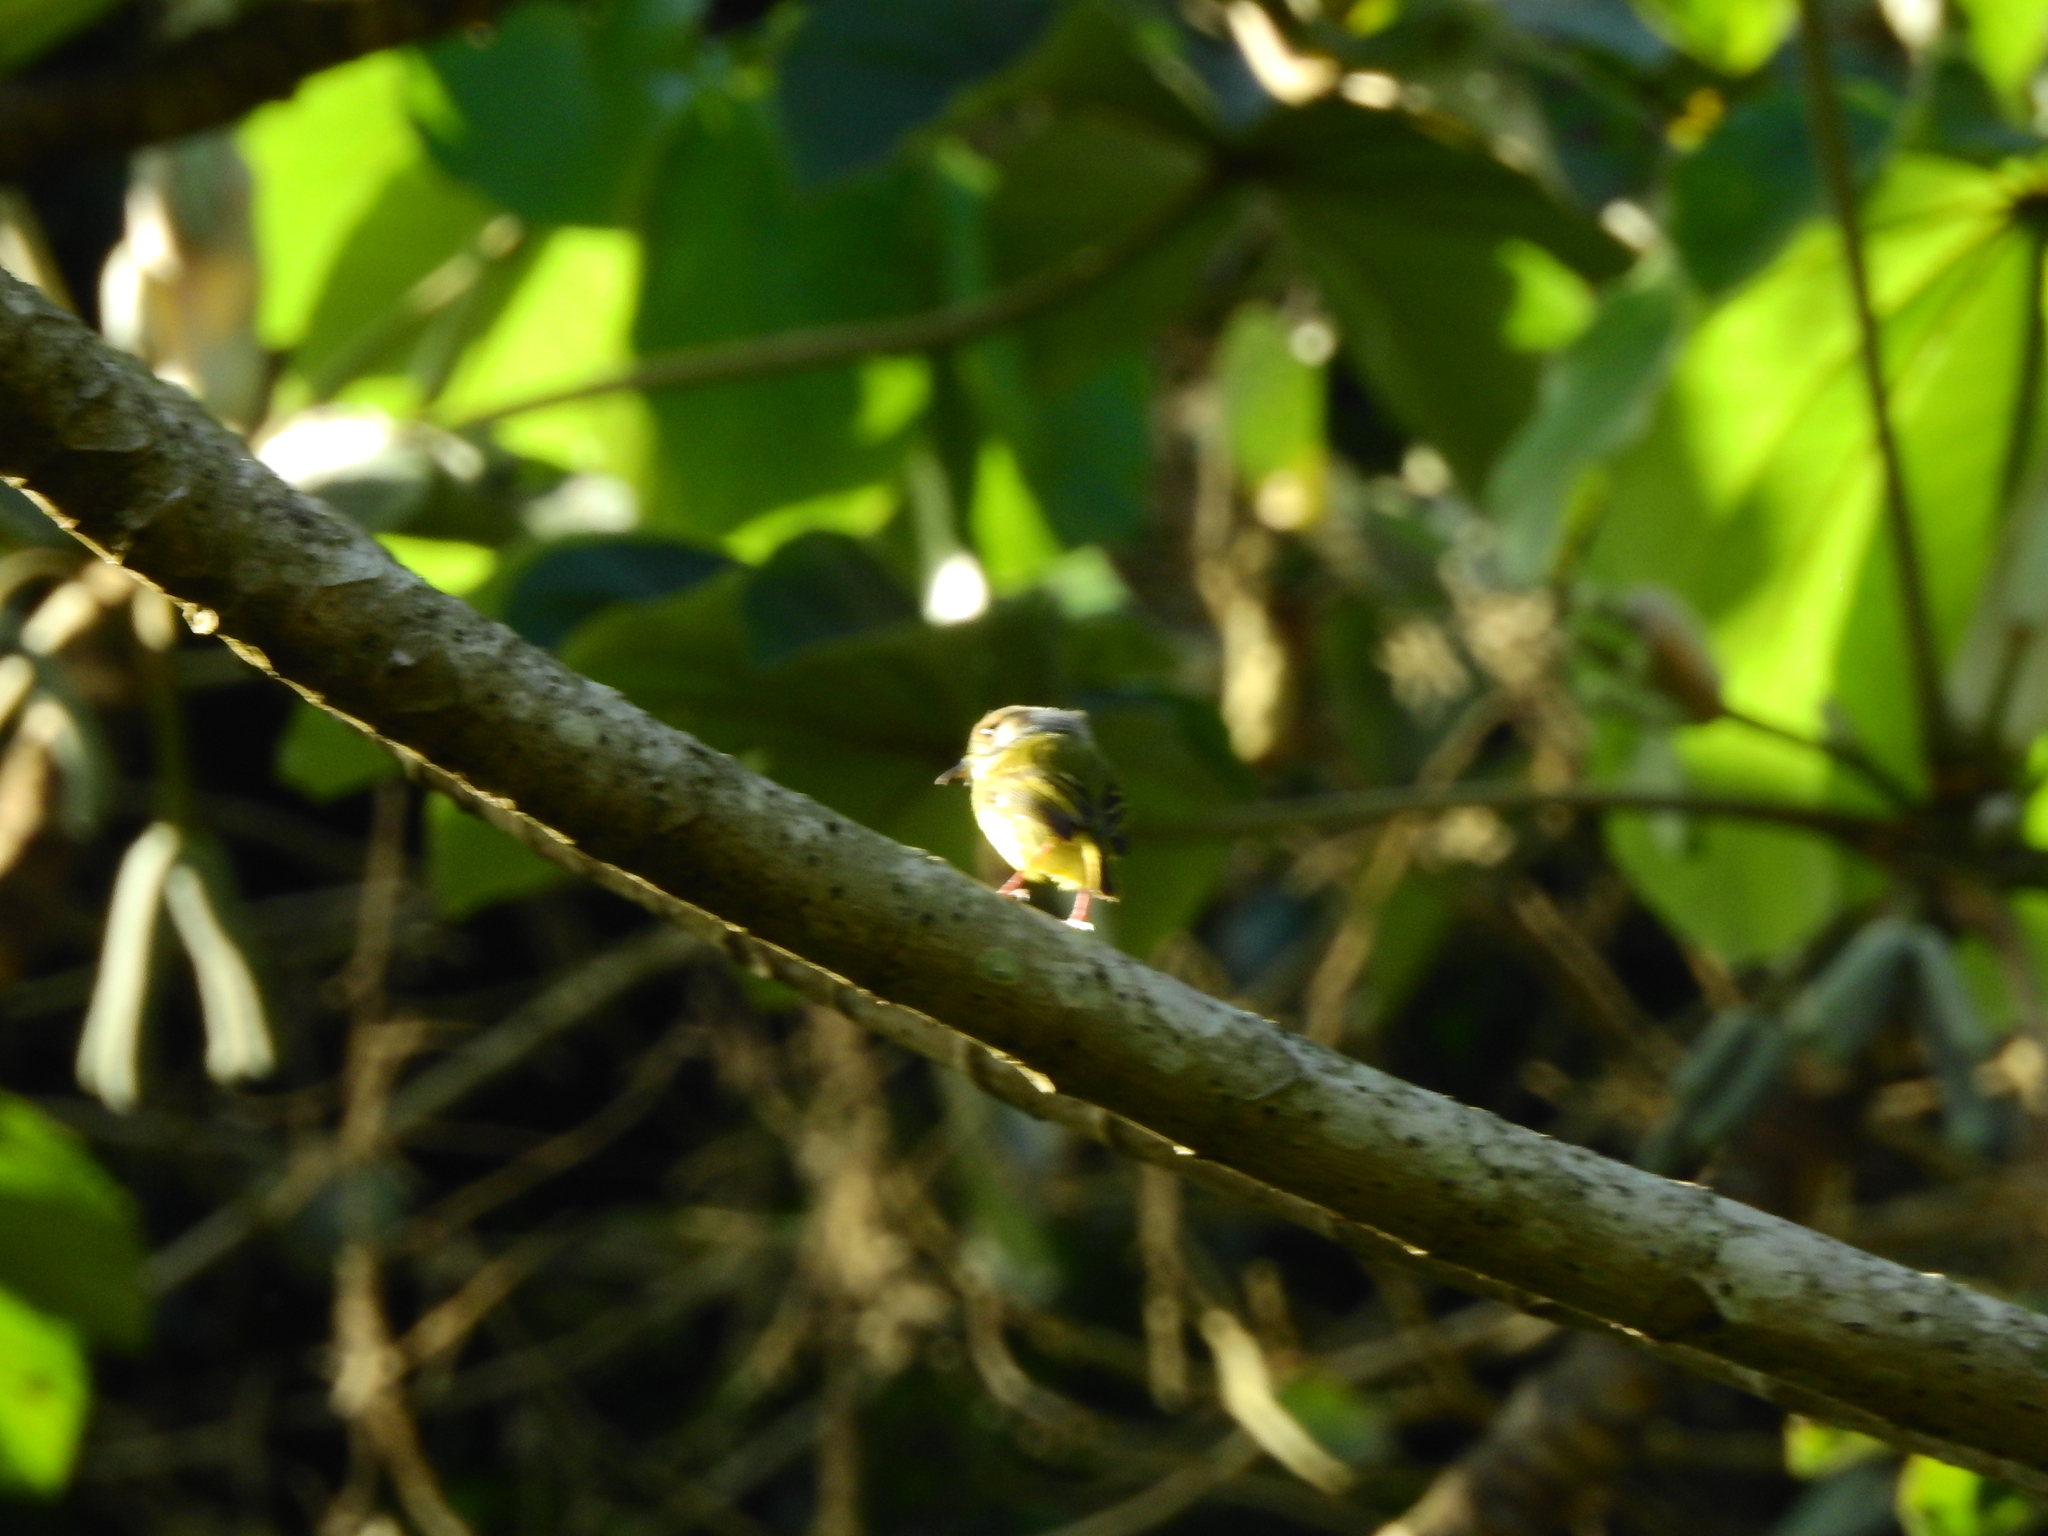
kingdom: Animalia
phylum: Chordata
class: Aves
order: Passeriformes
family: Tyrannidae
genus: Myiornis
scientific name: Myiornis auricularis
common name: Eared pygmy tyrant
